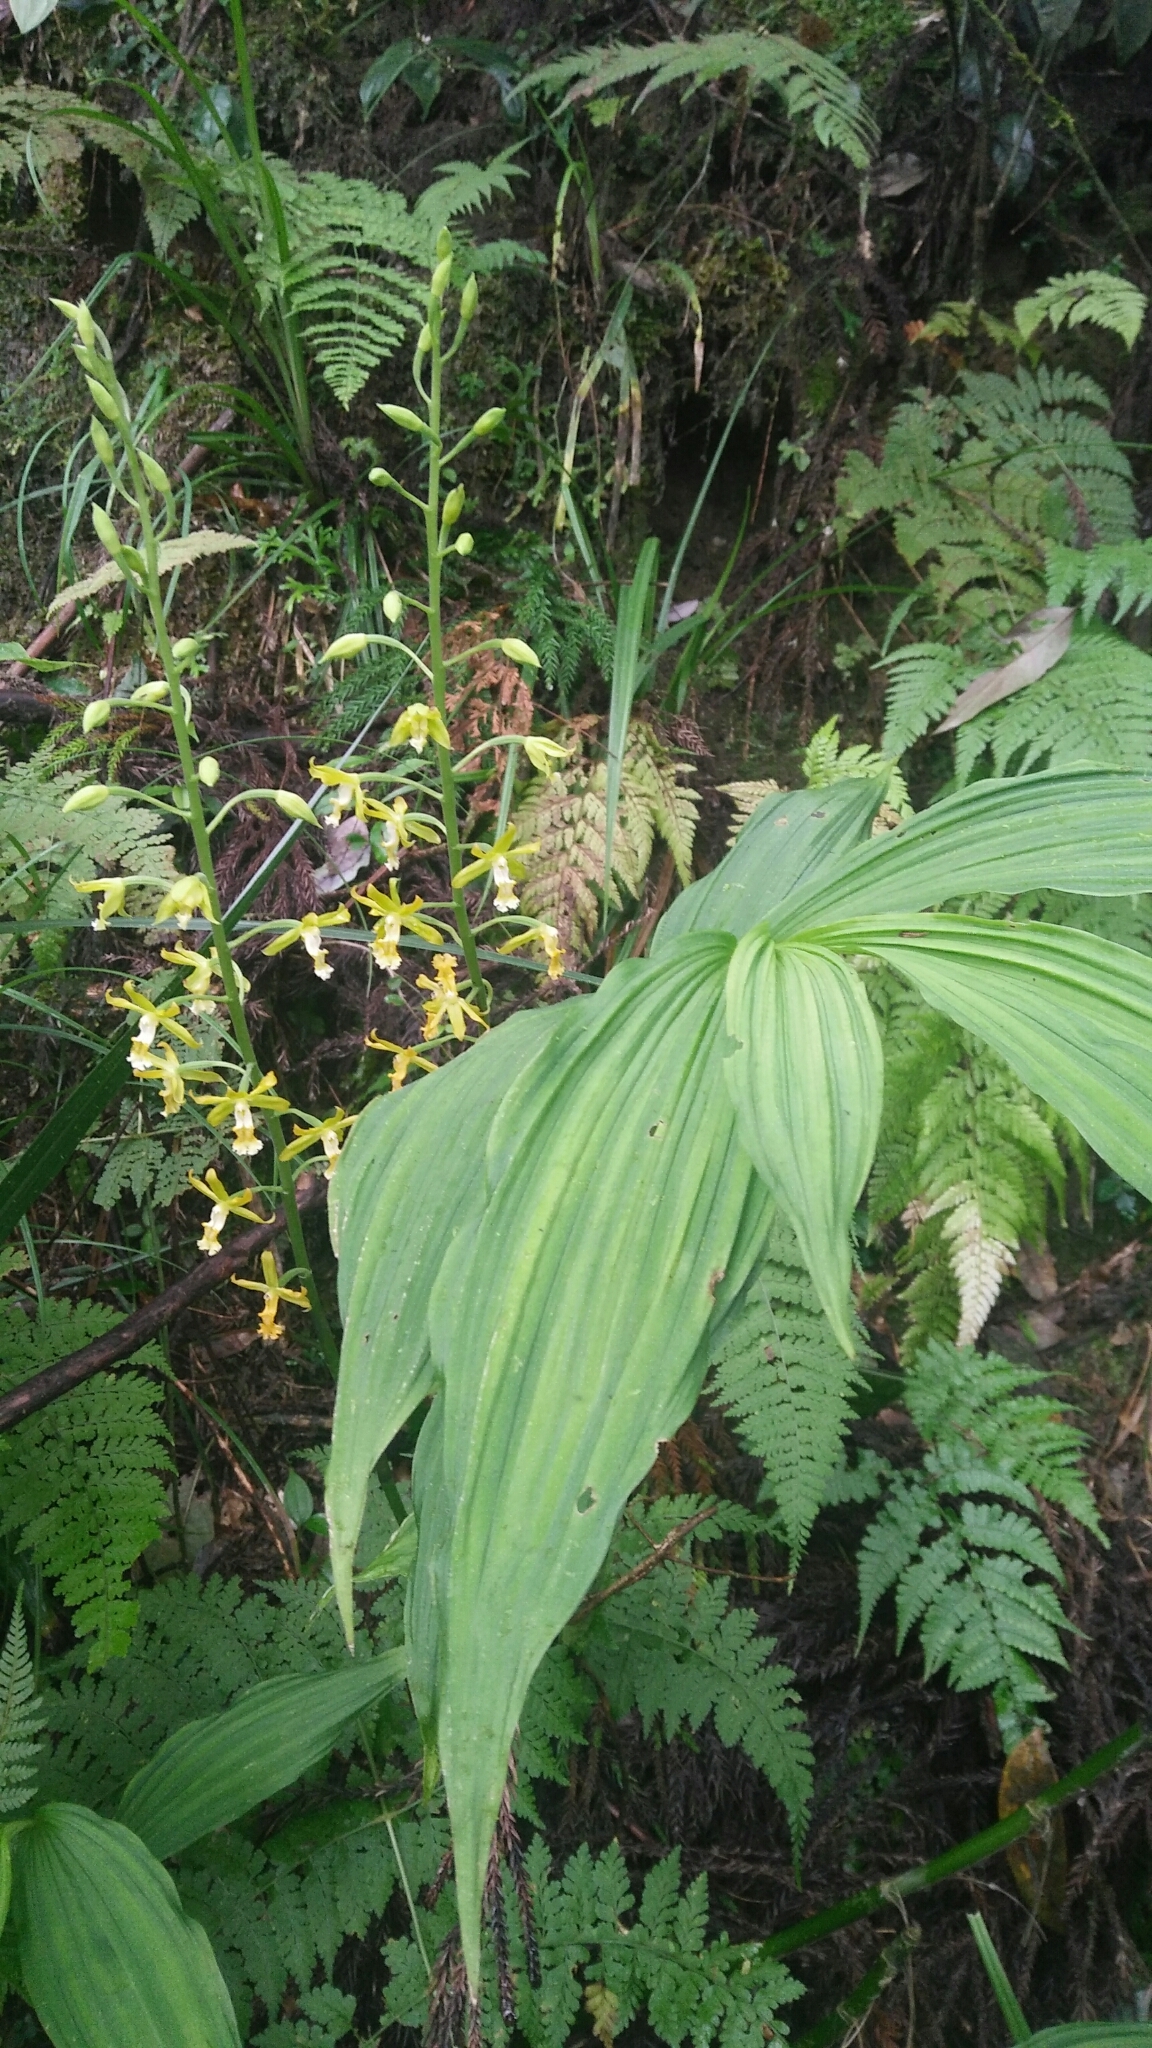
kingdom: Plantae
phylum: Tracheophyta
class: Liliopsida
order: Asparagales
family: Orchidaceae
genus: Calanthe
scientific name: Calanthe obcordata
